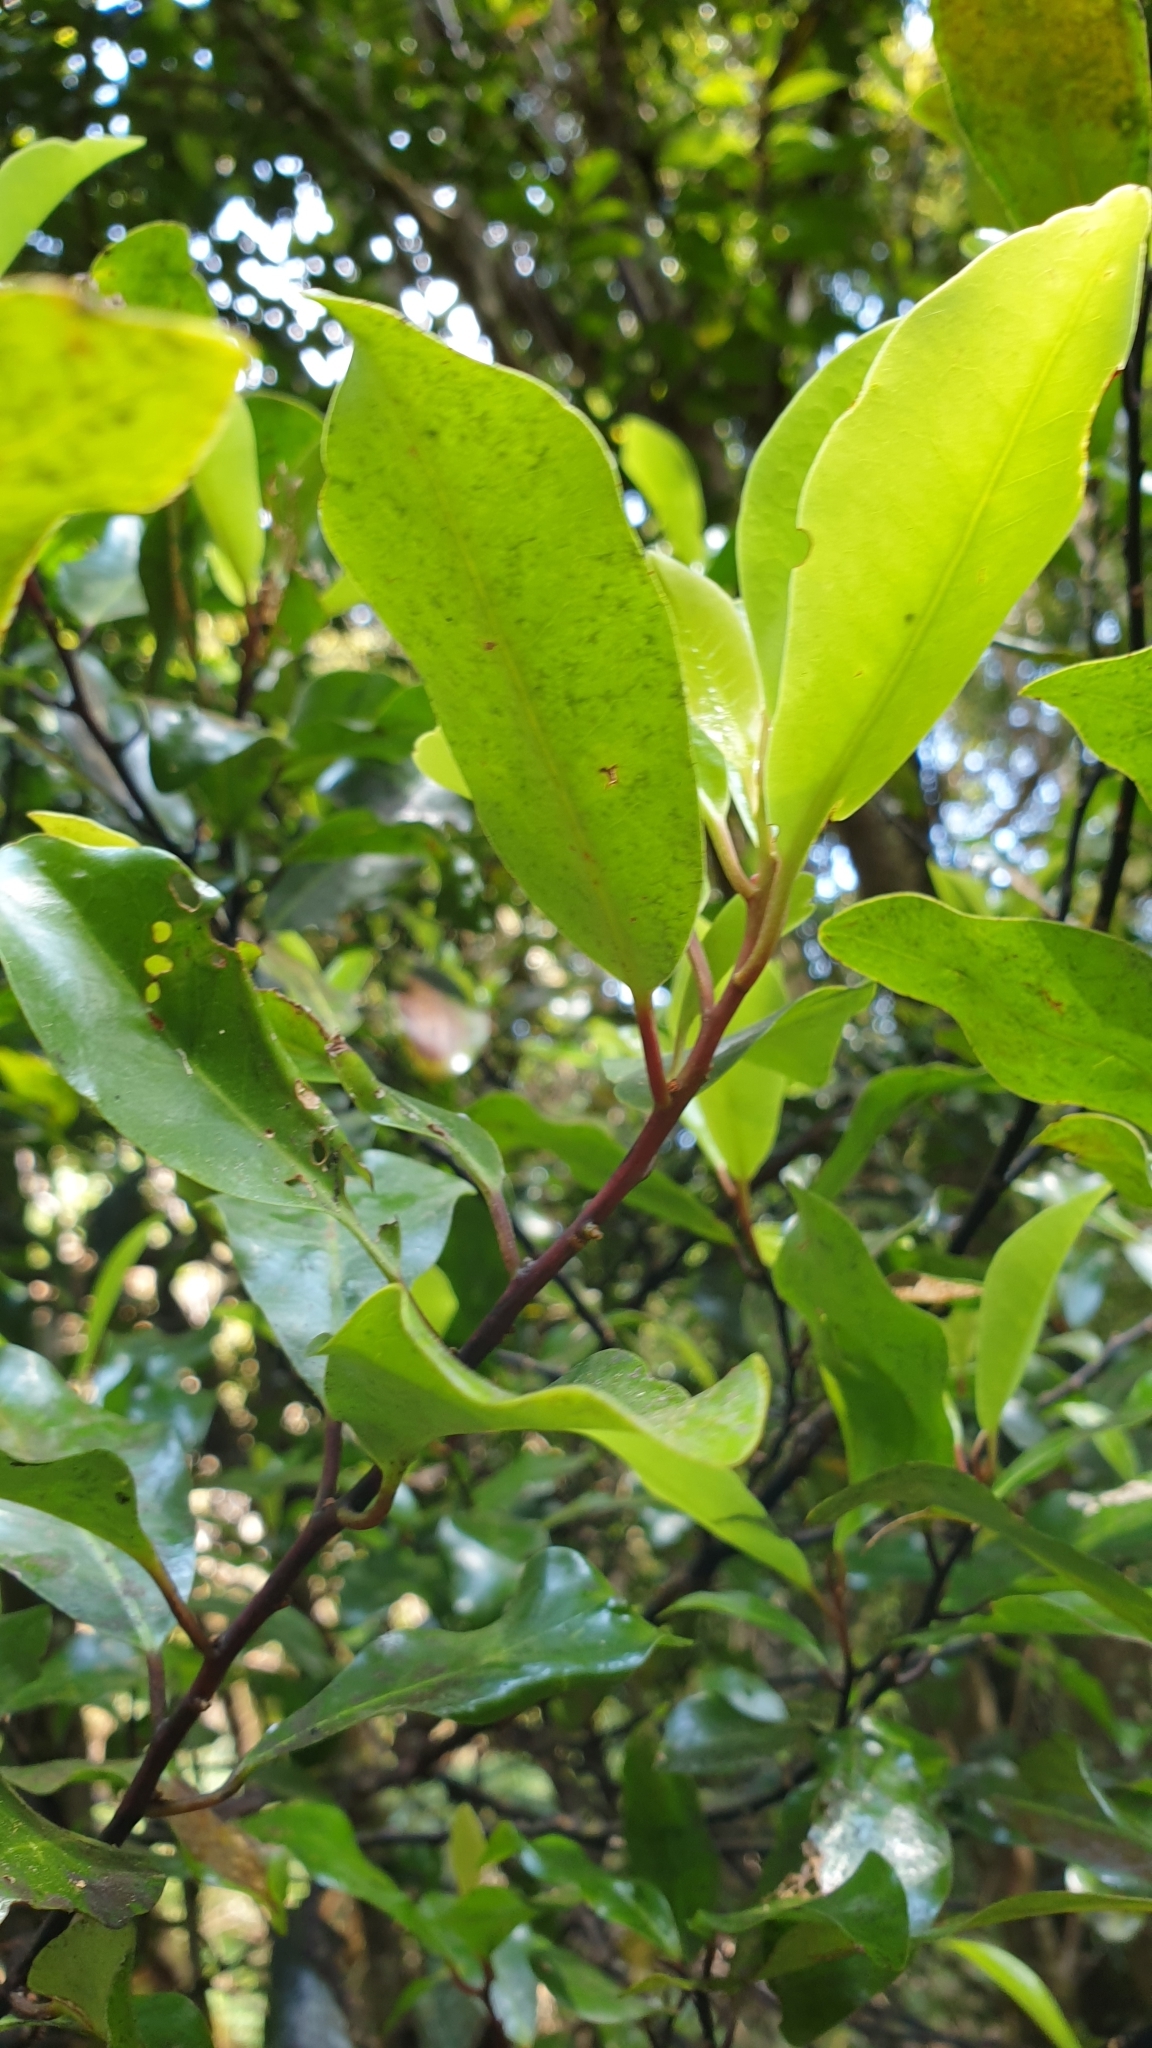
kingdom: Plantae
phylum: Tracheophyta
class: Magnoliopsida
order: Canellales
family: Winteraceae
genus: Pseudowintera
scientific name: Pseudowintera axillaris
